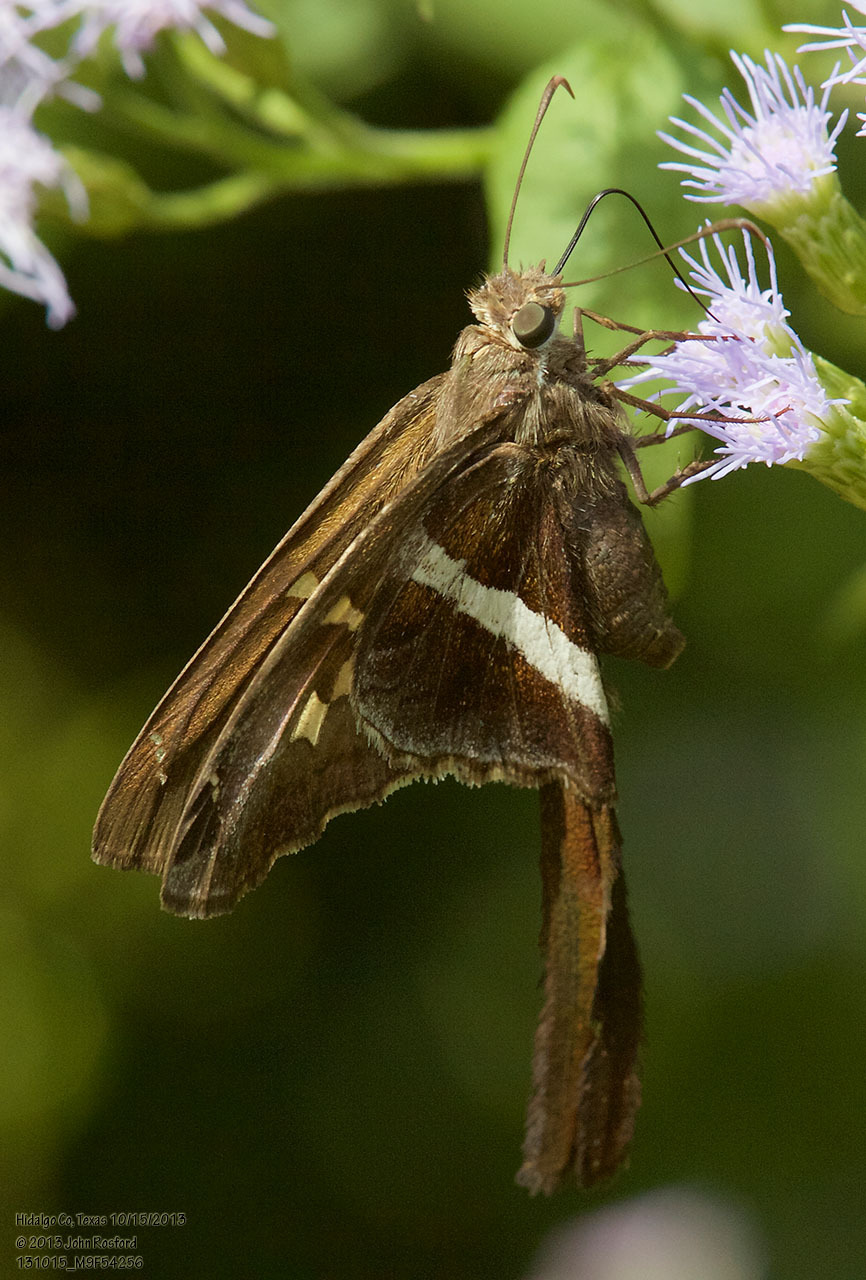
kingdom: Animalia
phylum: Arthropoda
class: Insecta
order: Lepidoptera
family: Hesperiidae
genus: Chioides
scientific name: Chioides catillus
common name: Silverbanded skipper
